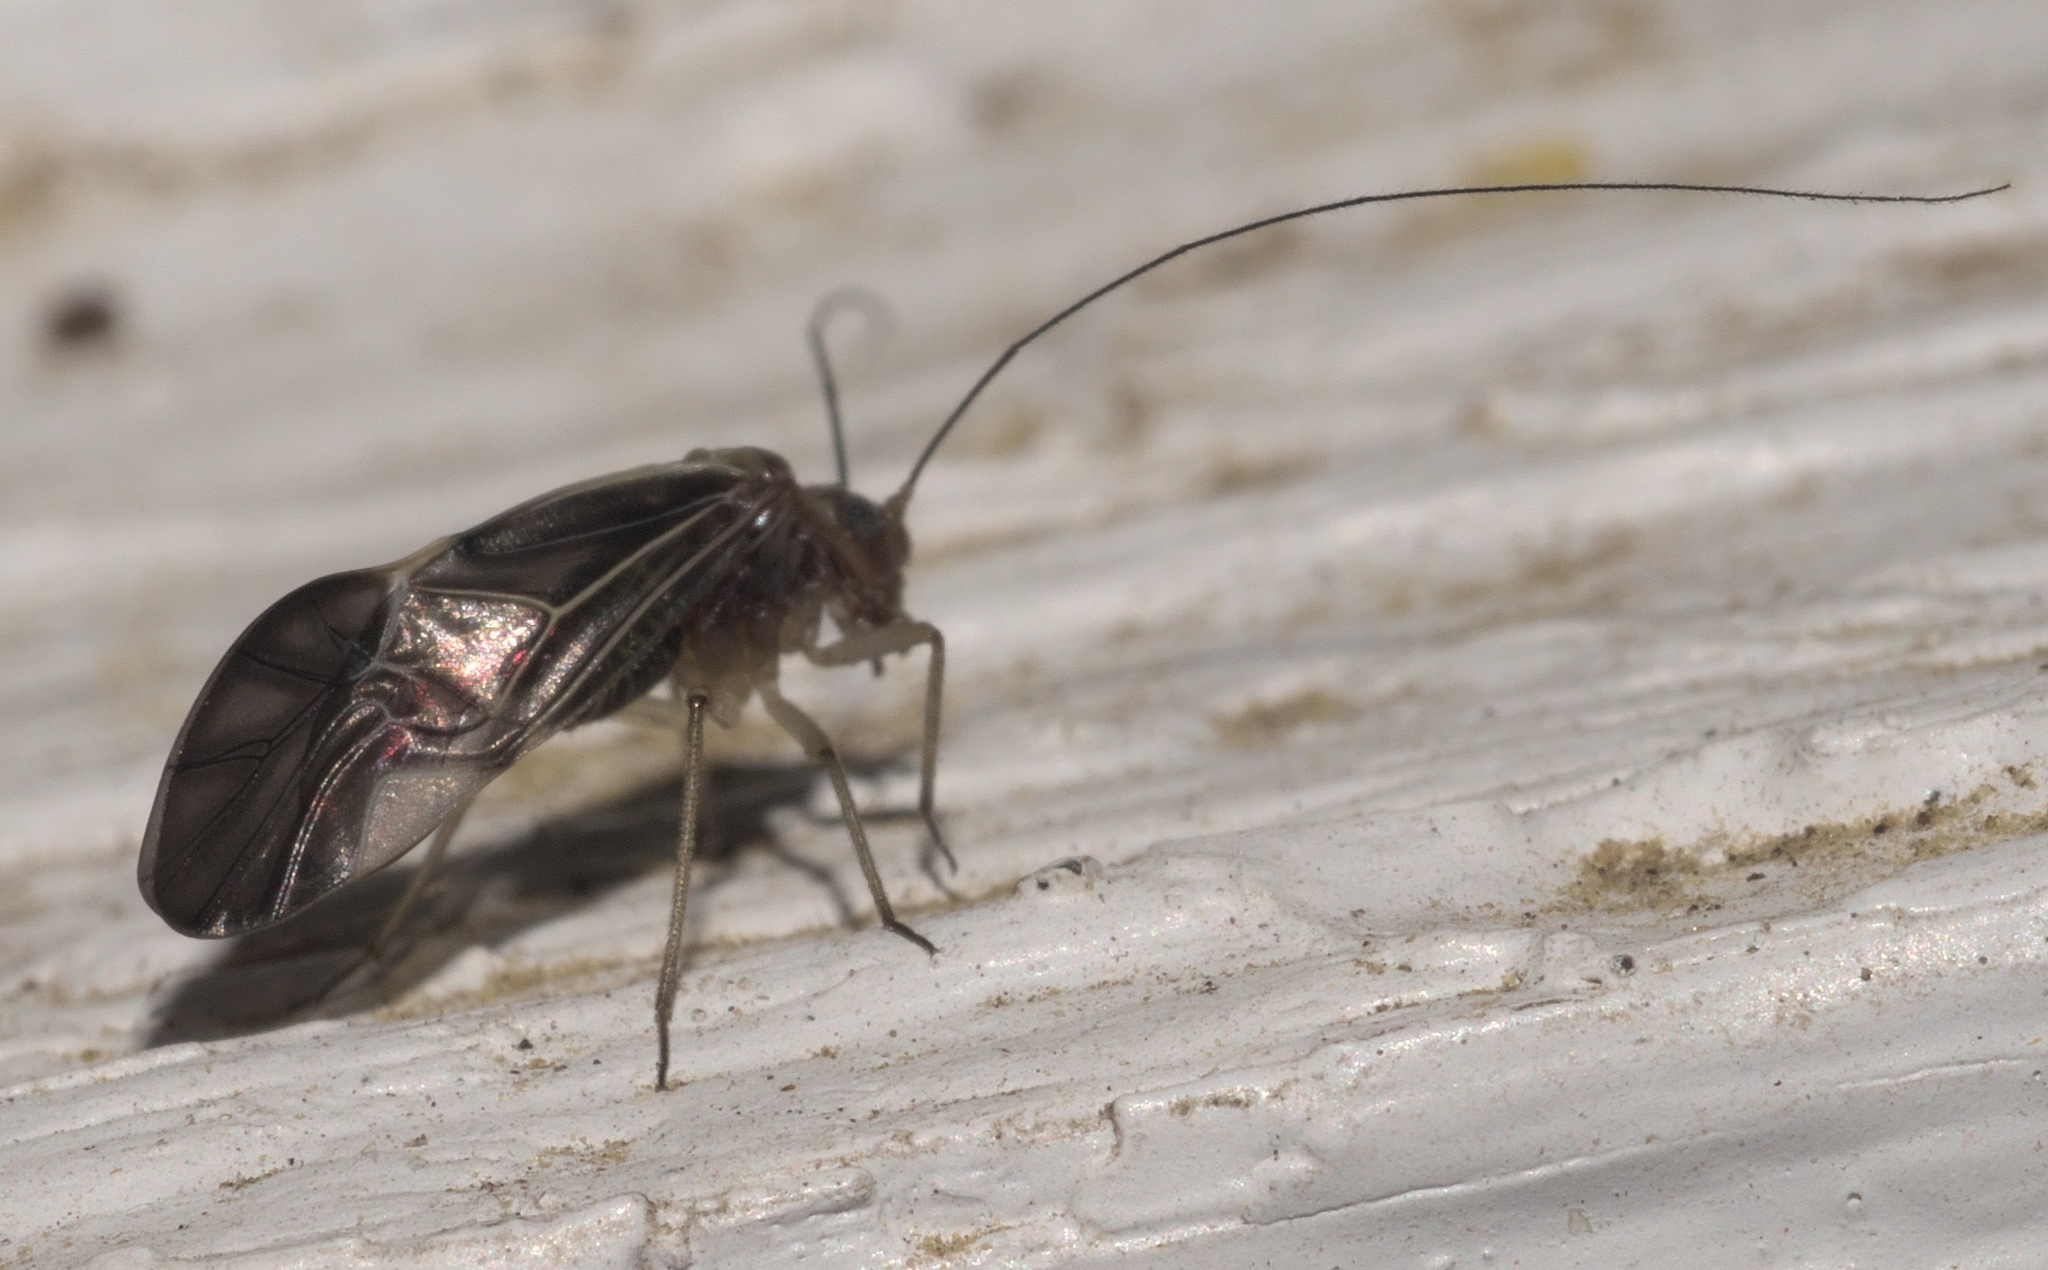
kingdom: Animalia
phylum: Arthropoda
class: Insecta
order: Psocodea
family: Psocidae
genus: Cerastipsocus
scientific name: Cerastipsocus venosus
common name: Tree cattle
